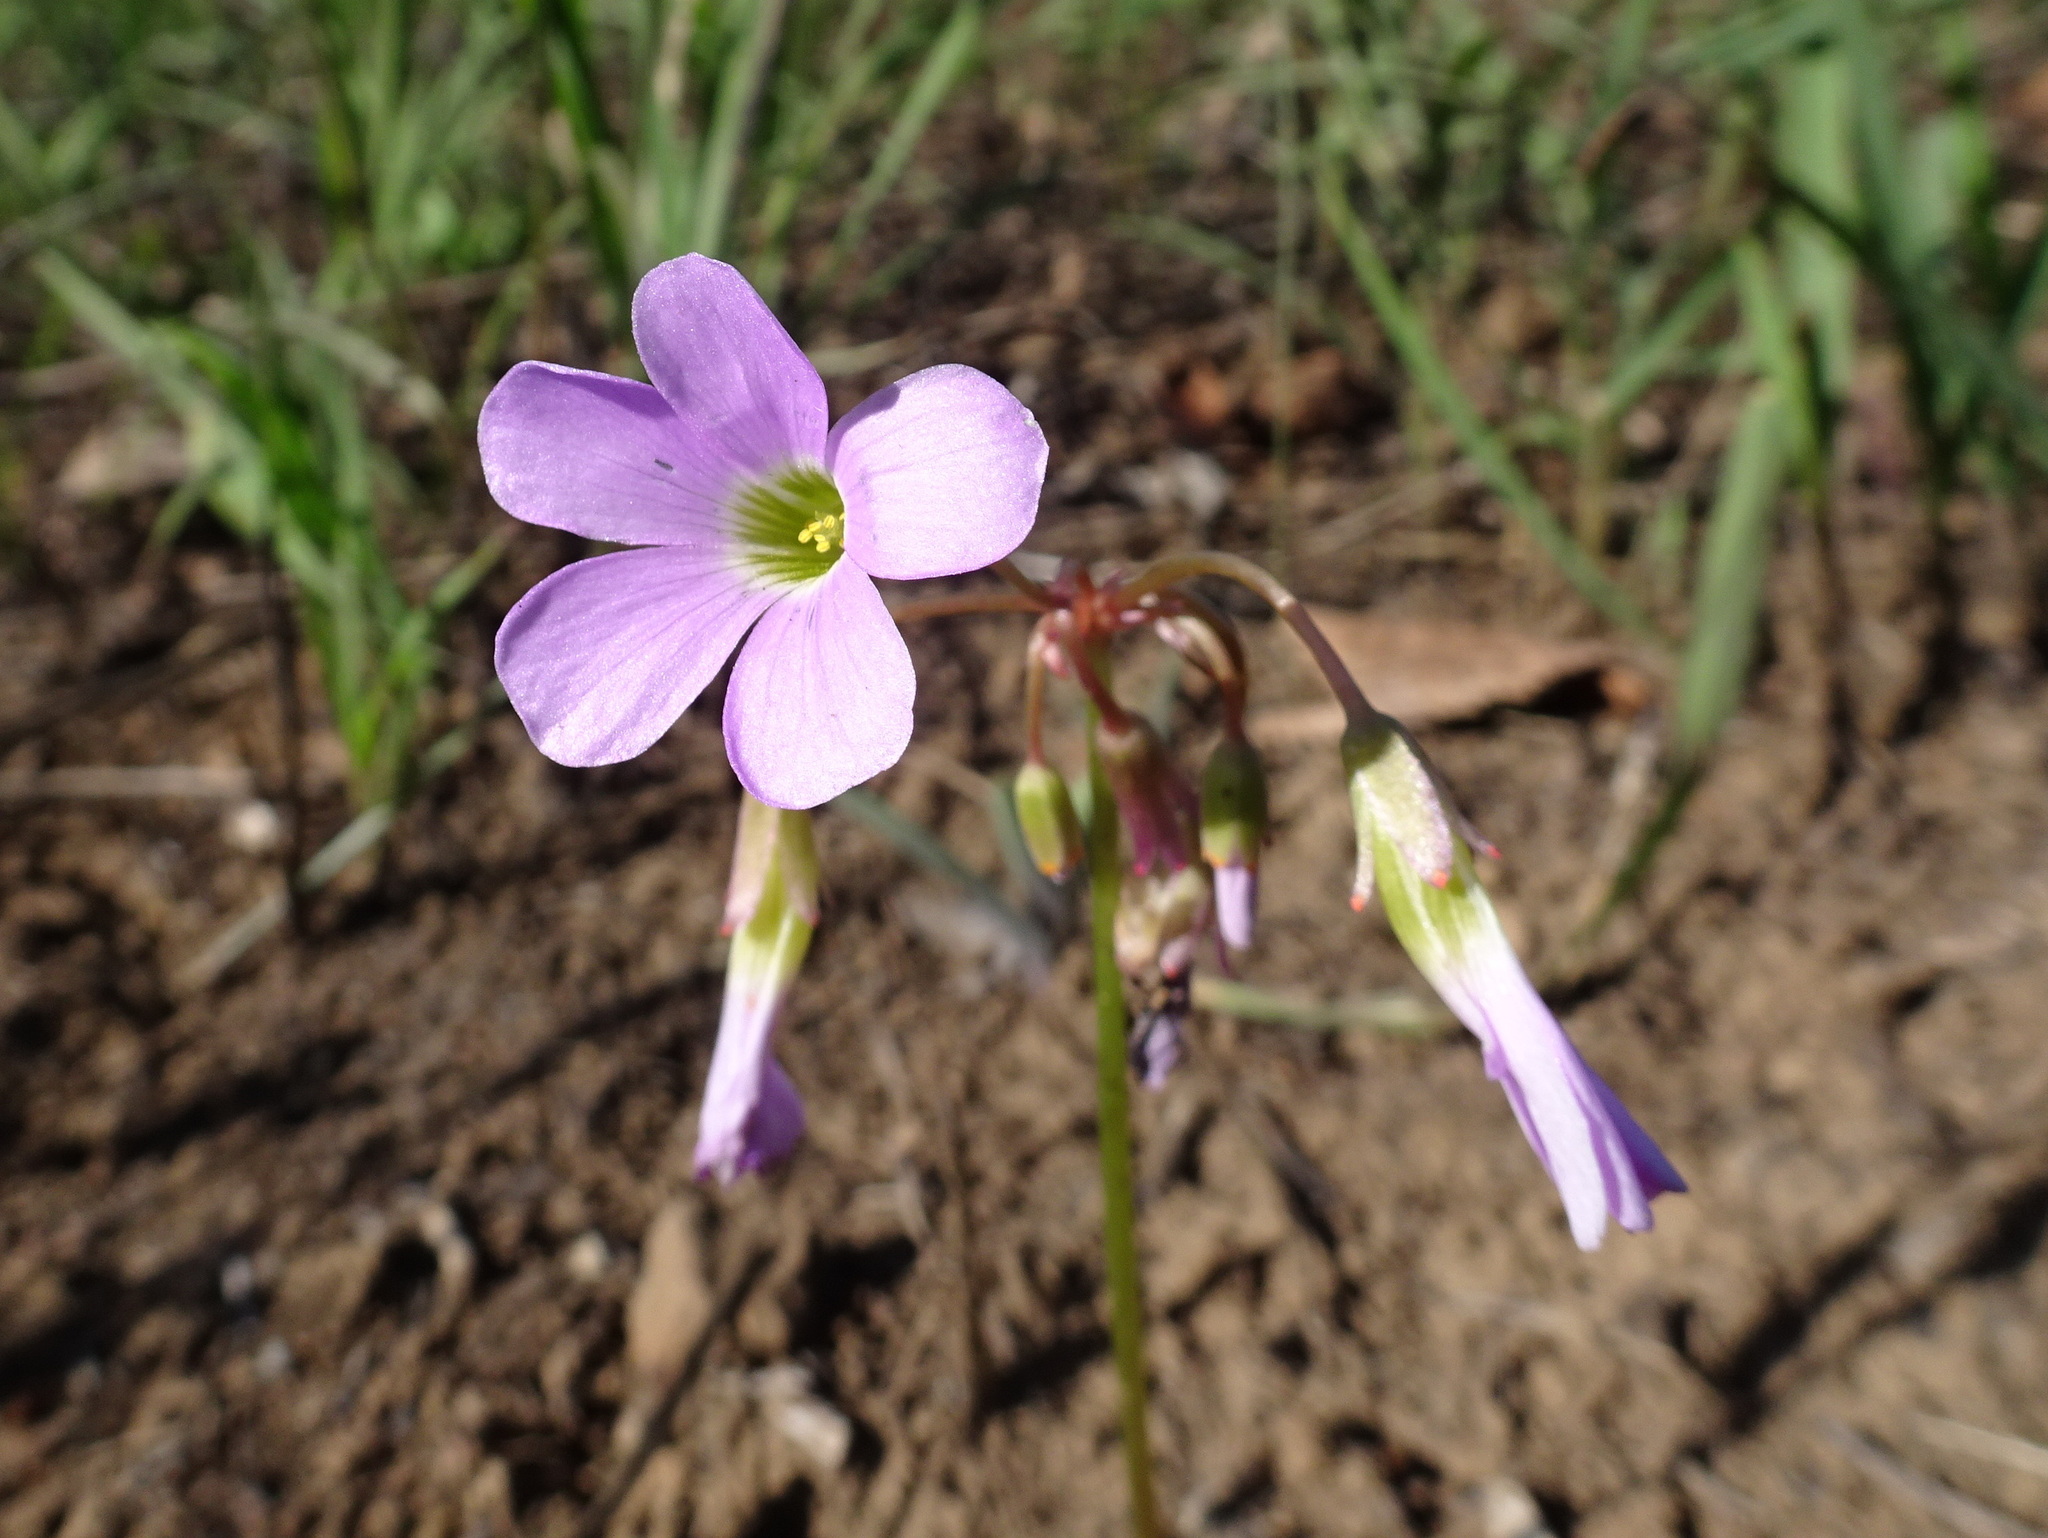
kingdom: Plantae
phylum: Tracheophyta
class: Magnoliopsida
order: Oxalidales
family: Oxalidaceae
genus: Oxalis
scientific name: Oxalis violacea
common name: Violet wood-sorrel
